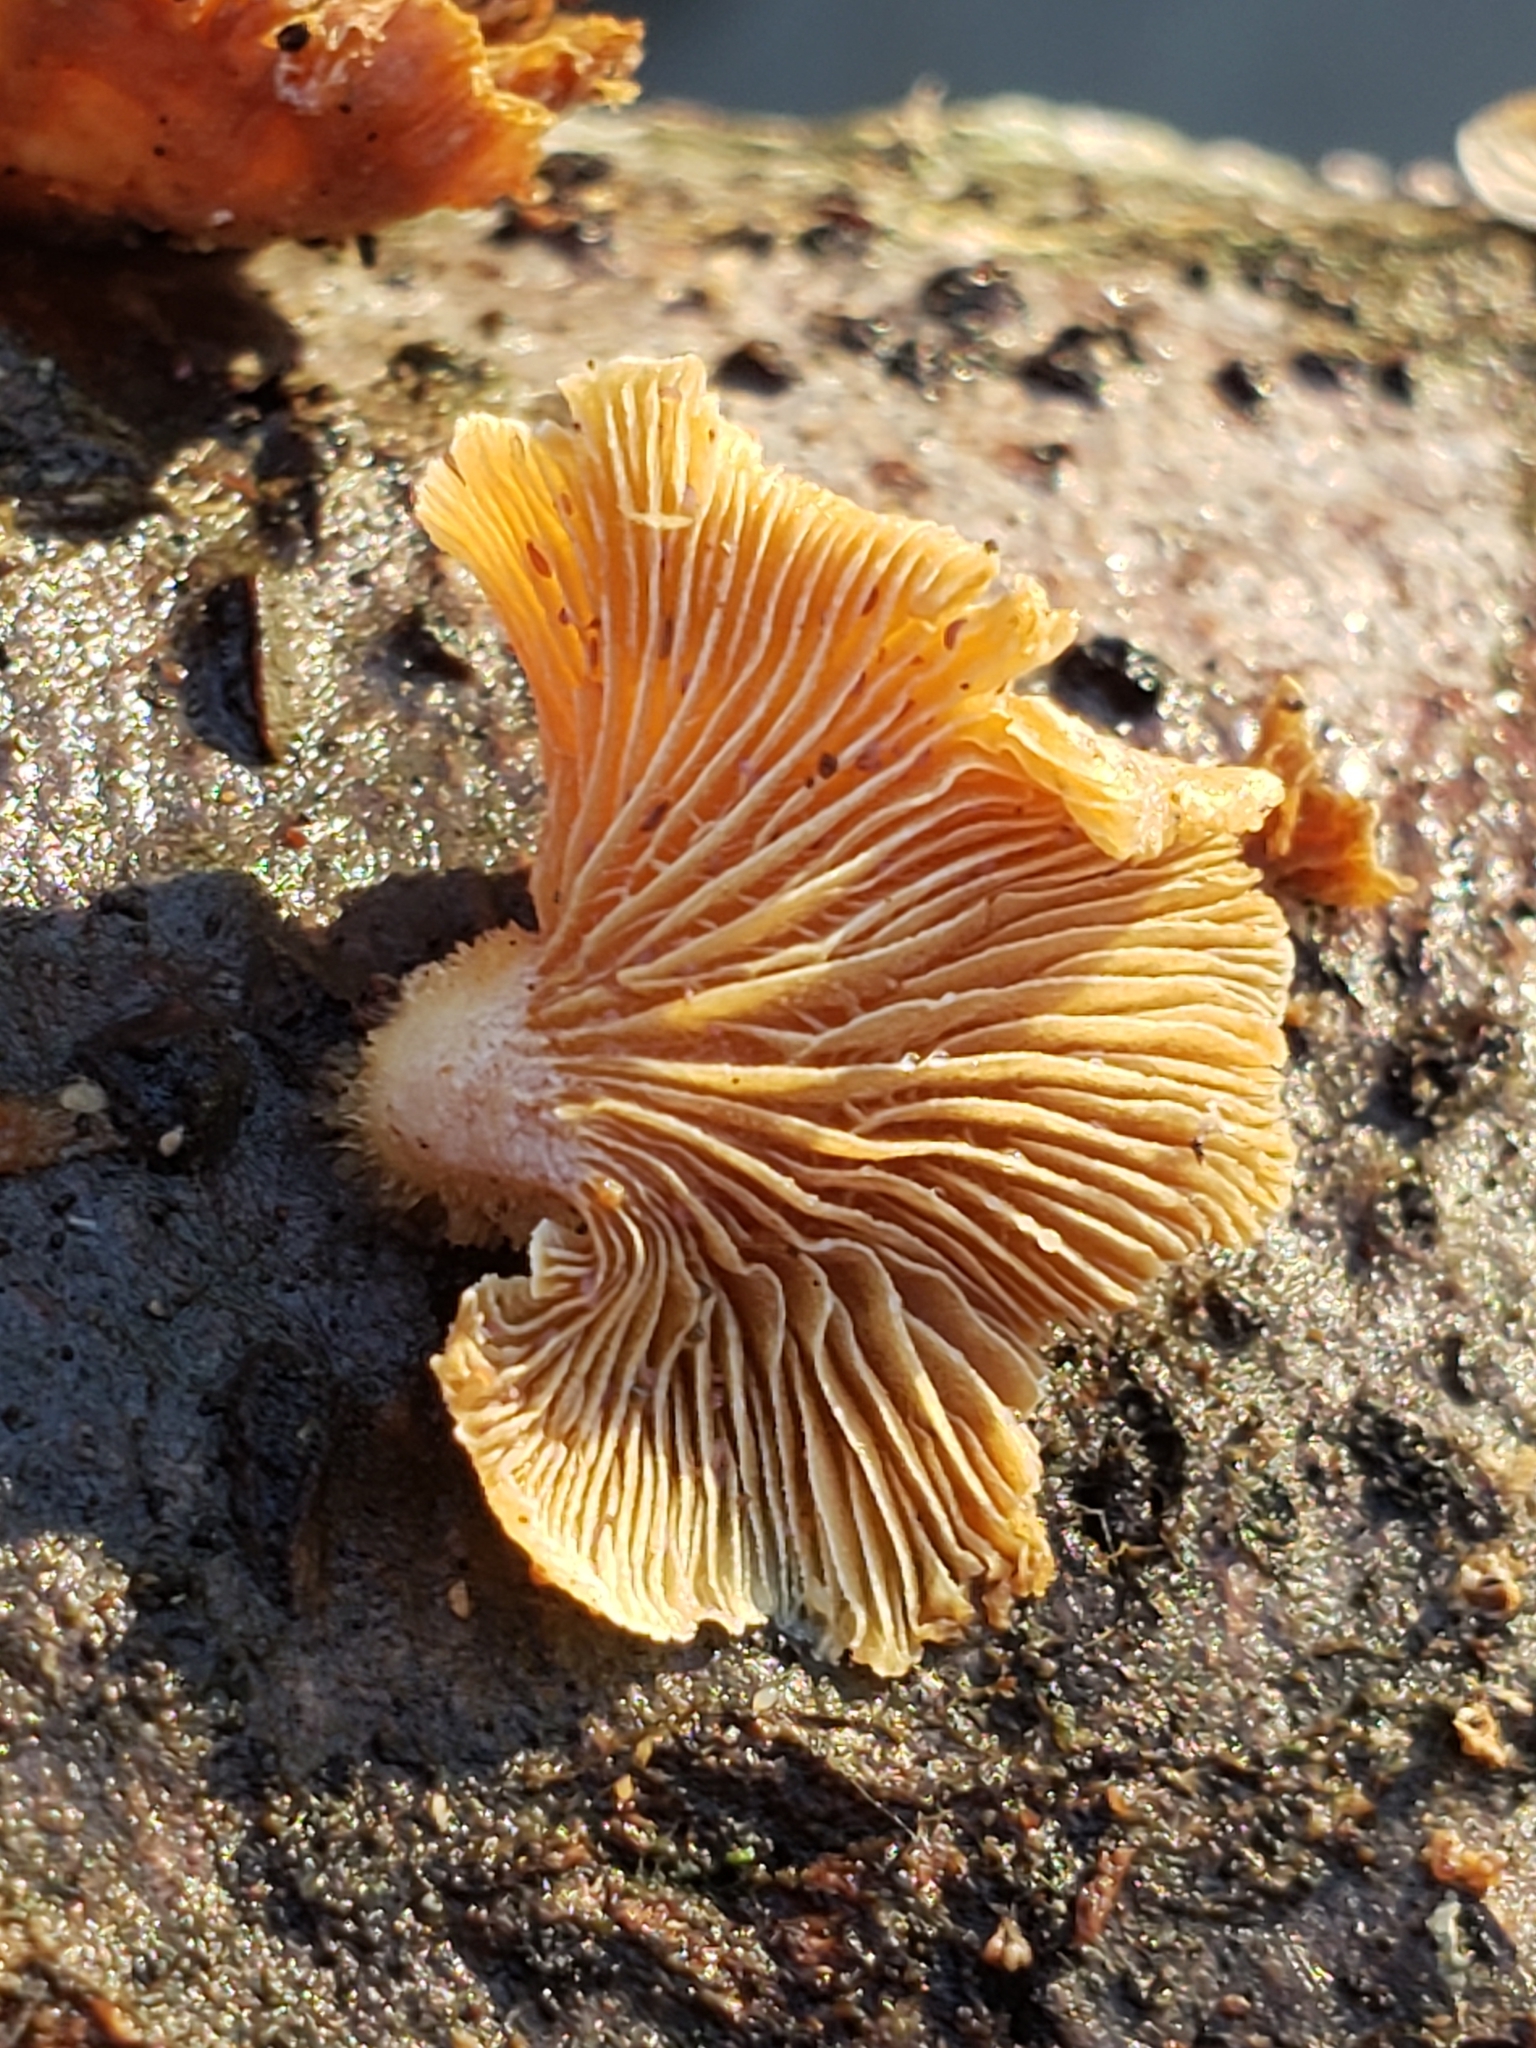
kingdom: Fungi
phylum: Basidiomycota
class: Agaricomycetes
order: Agaricales
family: Mycenaceae
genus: Panellus
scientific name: Panellus stipticus
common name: Bitter oysterling
